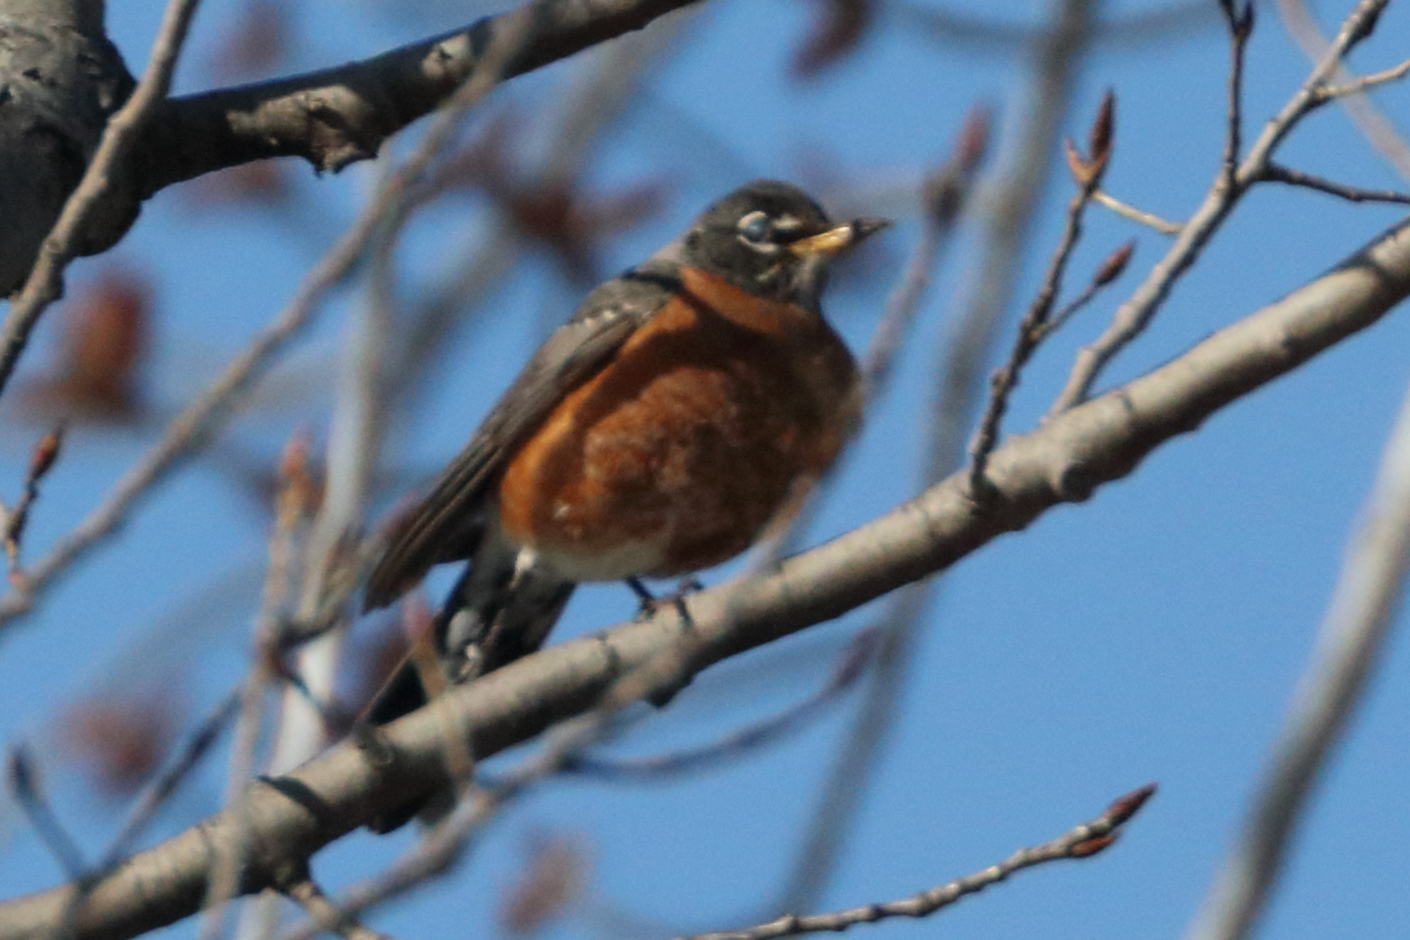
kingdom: Animalia
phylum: Chordata
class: Aves
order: Passeriformes
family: Turdidae
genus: Turdus
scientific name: Turdus migratorius
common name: American robin
